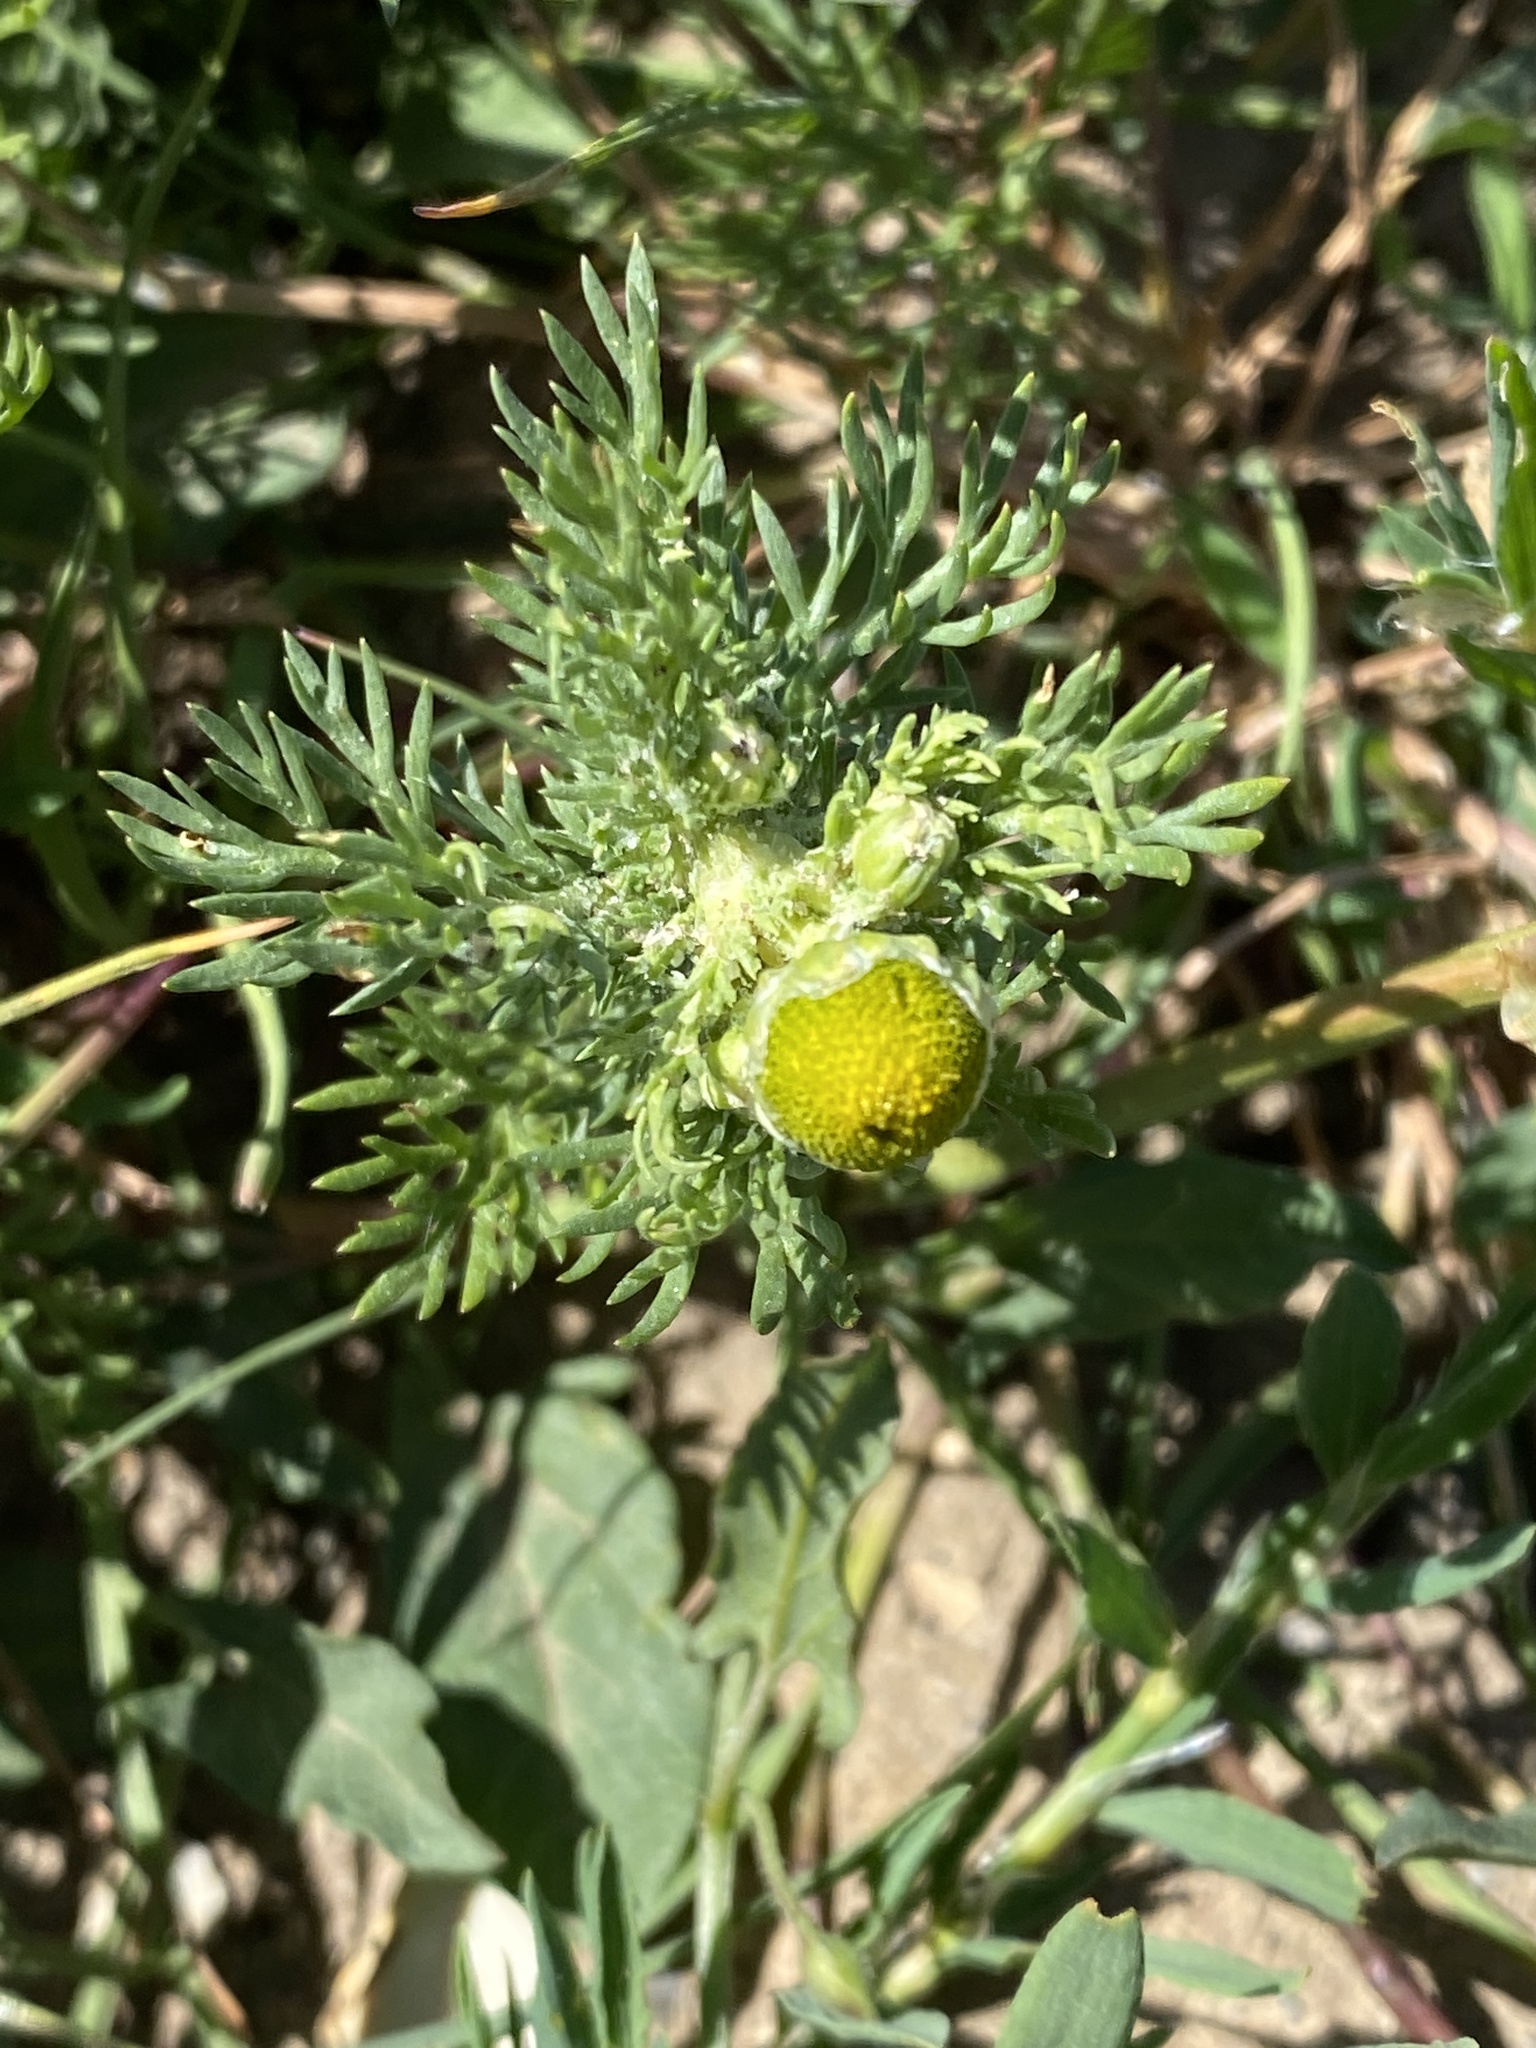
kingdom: Plantae
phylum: Tracheophyta
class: Magnoliopsida
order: Asterales
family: Asteraceae
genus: Matricaria
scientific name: Matricaria discoidea
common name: Disc mayweed
